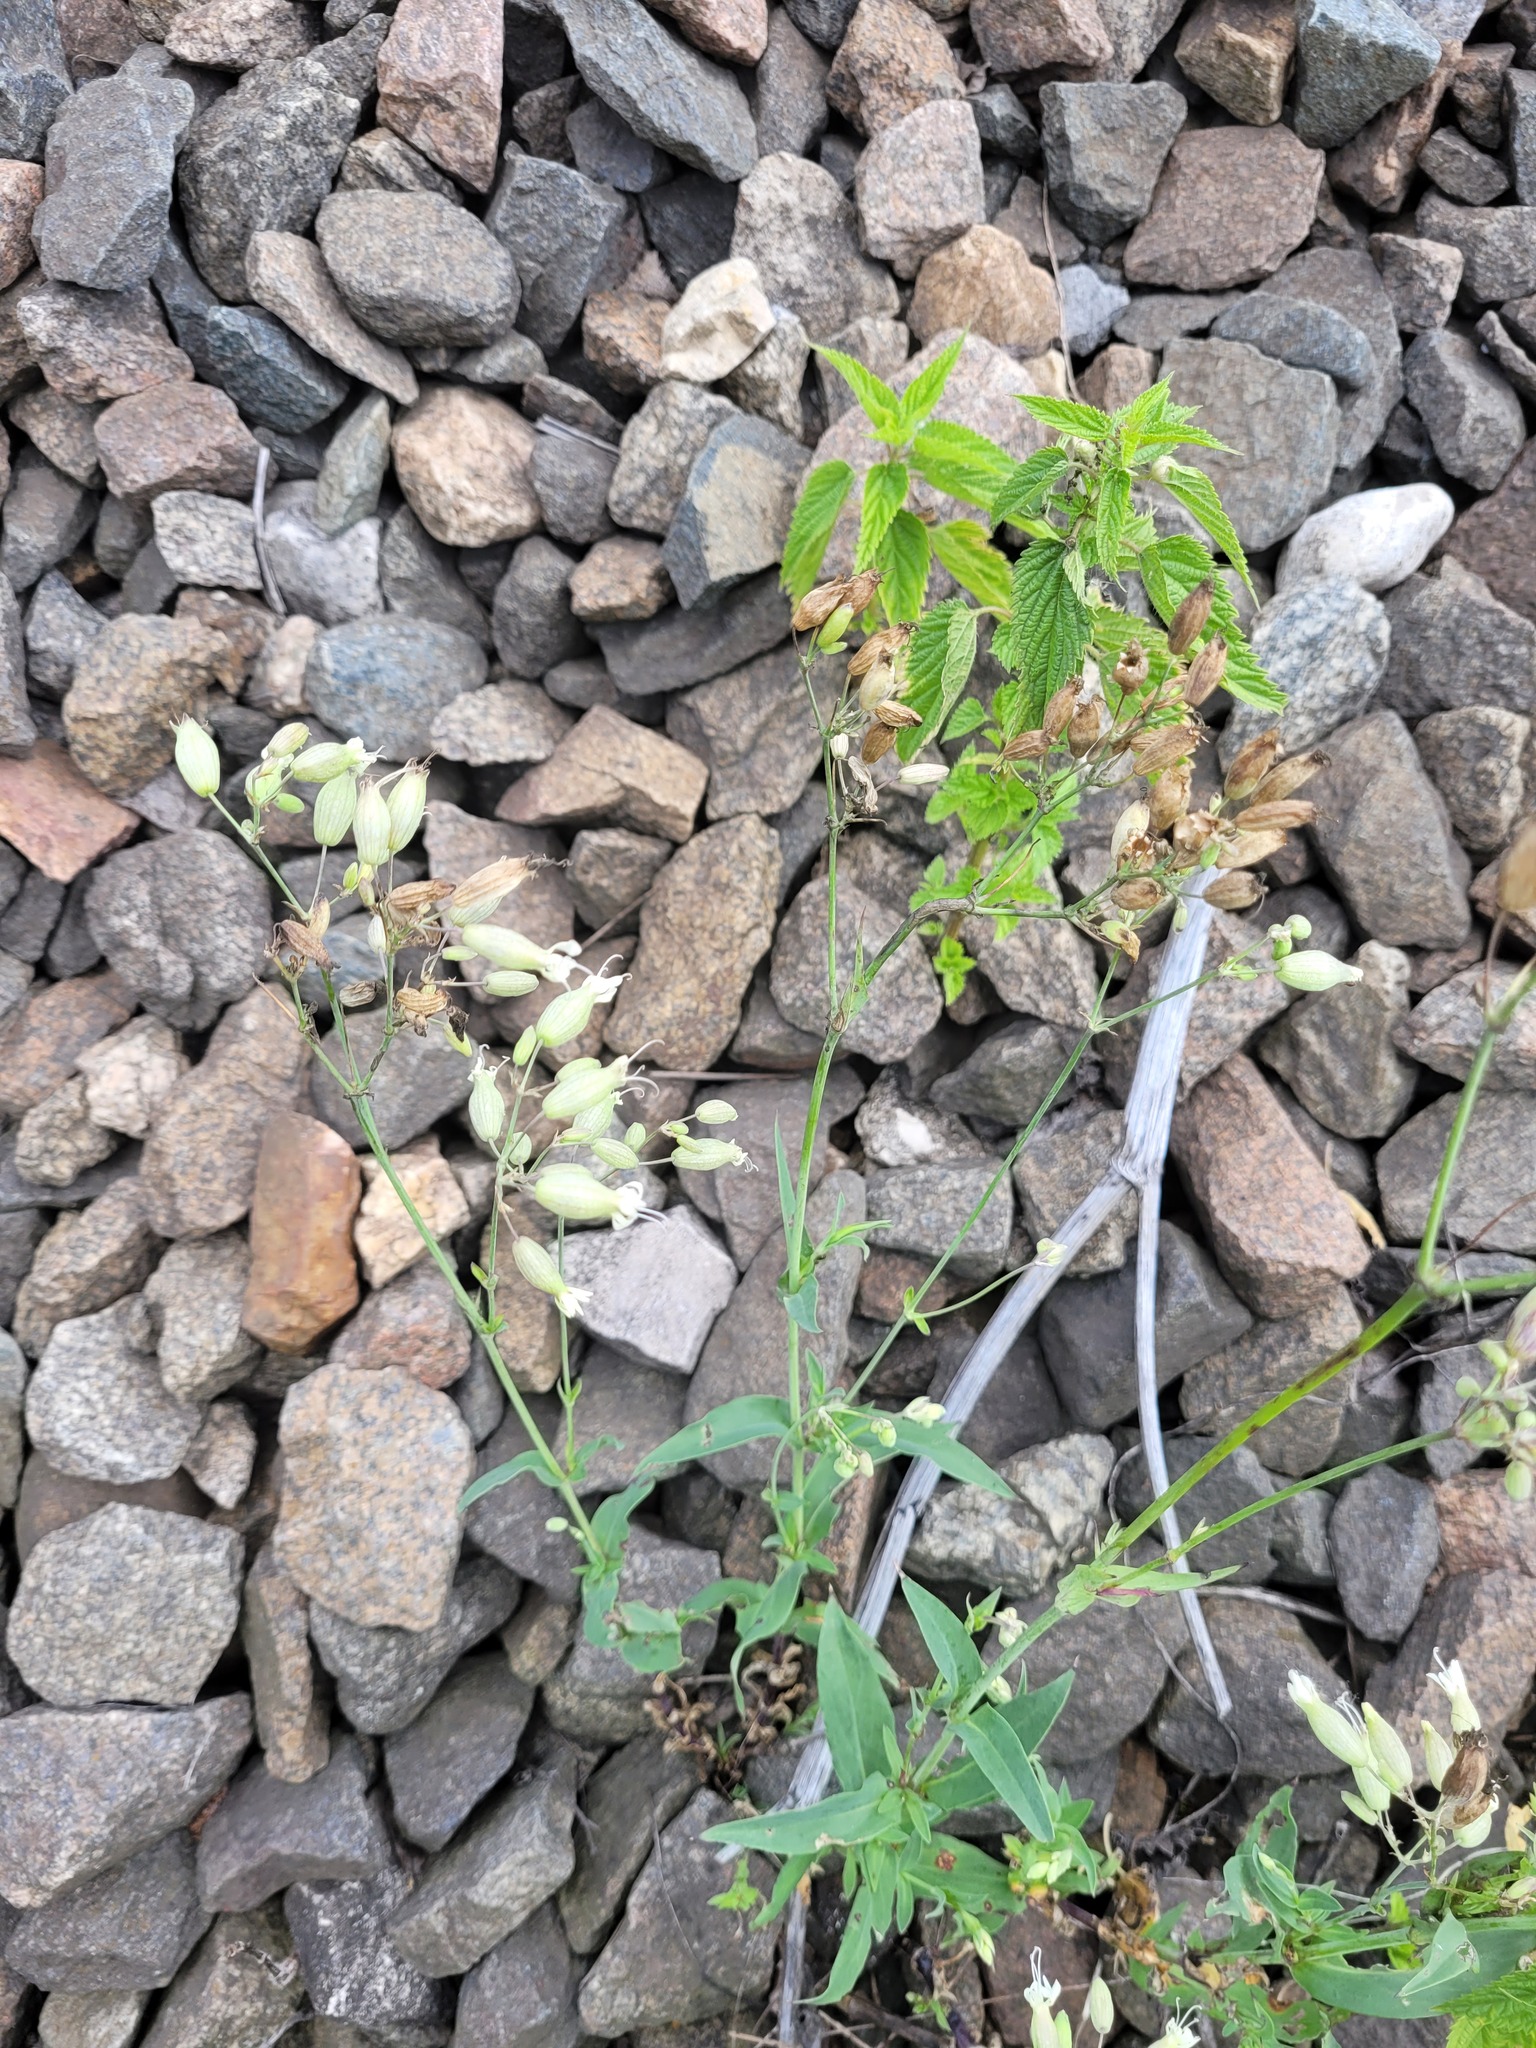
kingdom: Plantae
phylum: Tracheophyta
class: Magnoliopsida
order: Caryophyllales
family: Caryophyllaceae
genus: Silene
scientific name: Silene vulgaris
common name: Bladder campion
